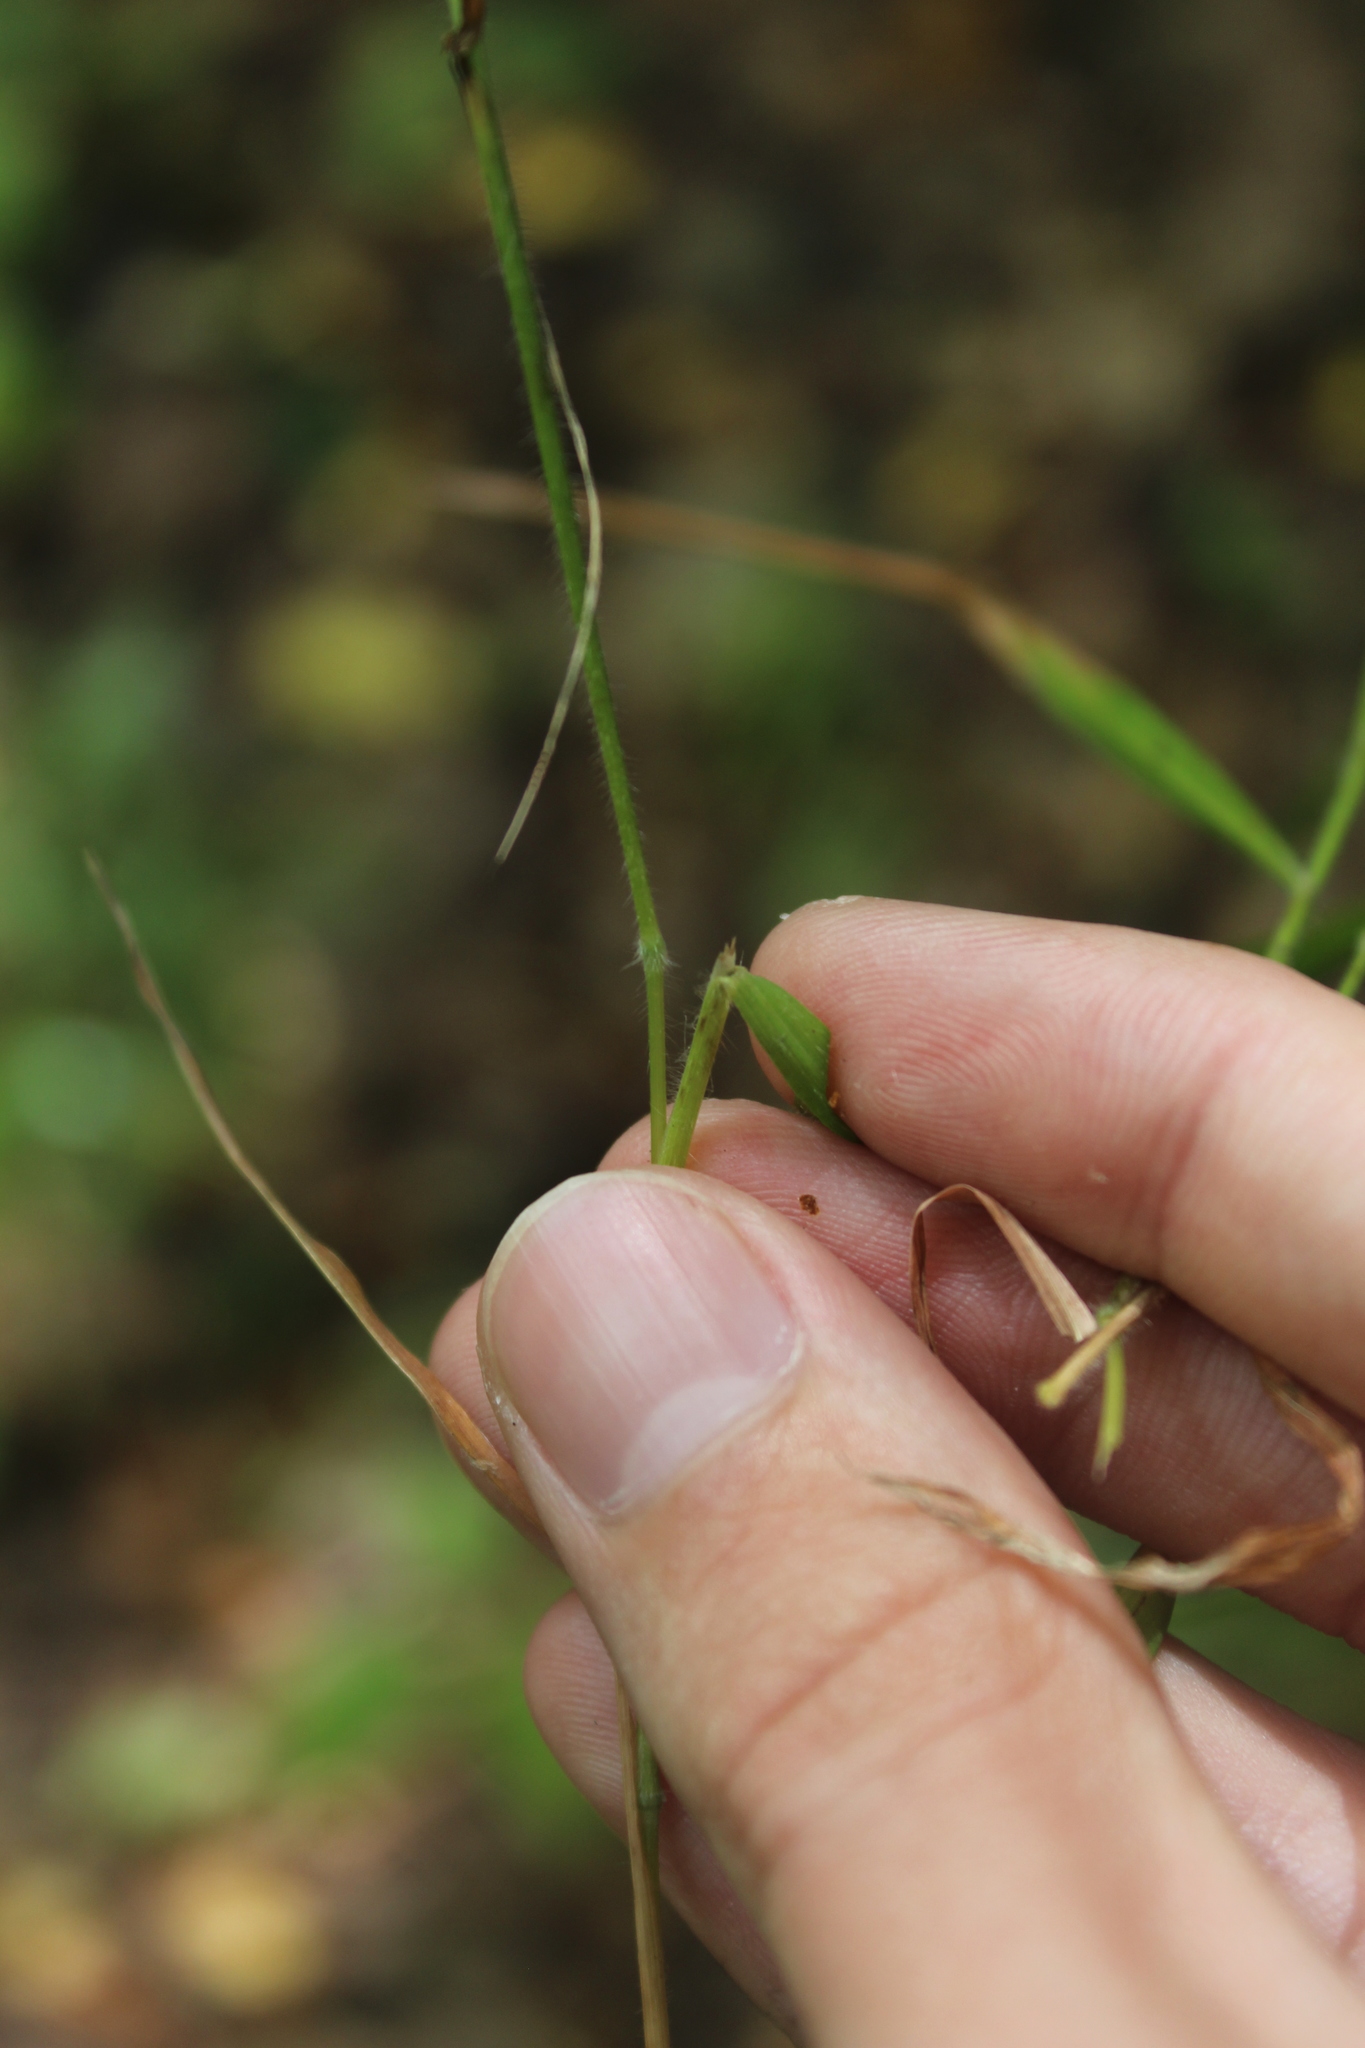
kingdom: Plantae
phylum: Tracheophyta
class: Liliopsida
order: Poales
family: Poaceae
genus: Brachypodium
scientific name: Brachypodium sylvaticum
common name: False-brome
